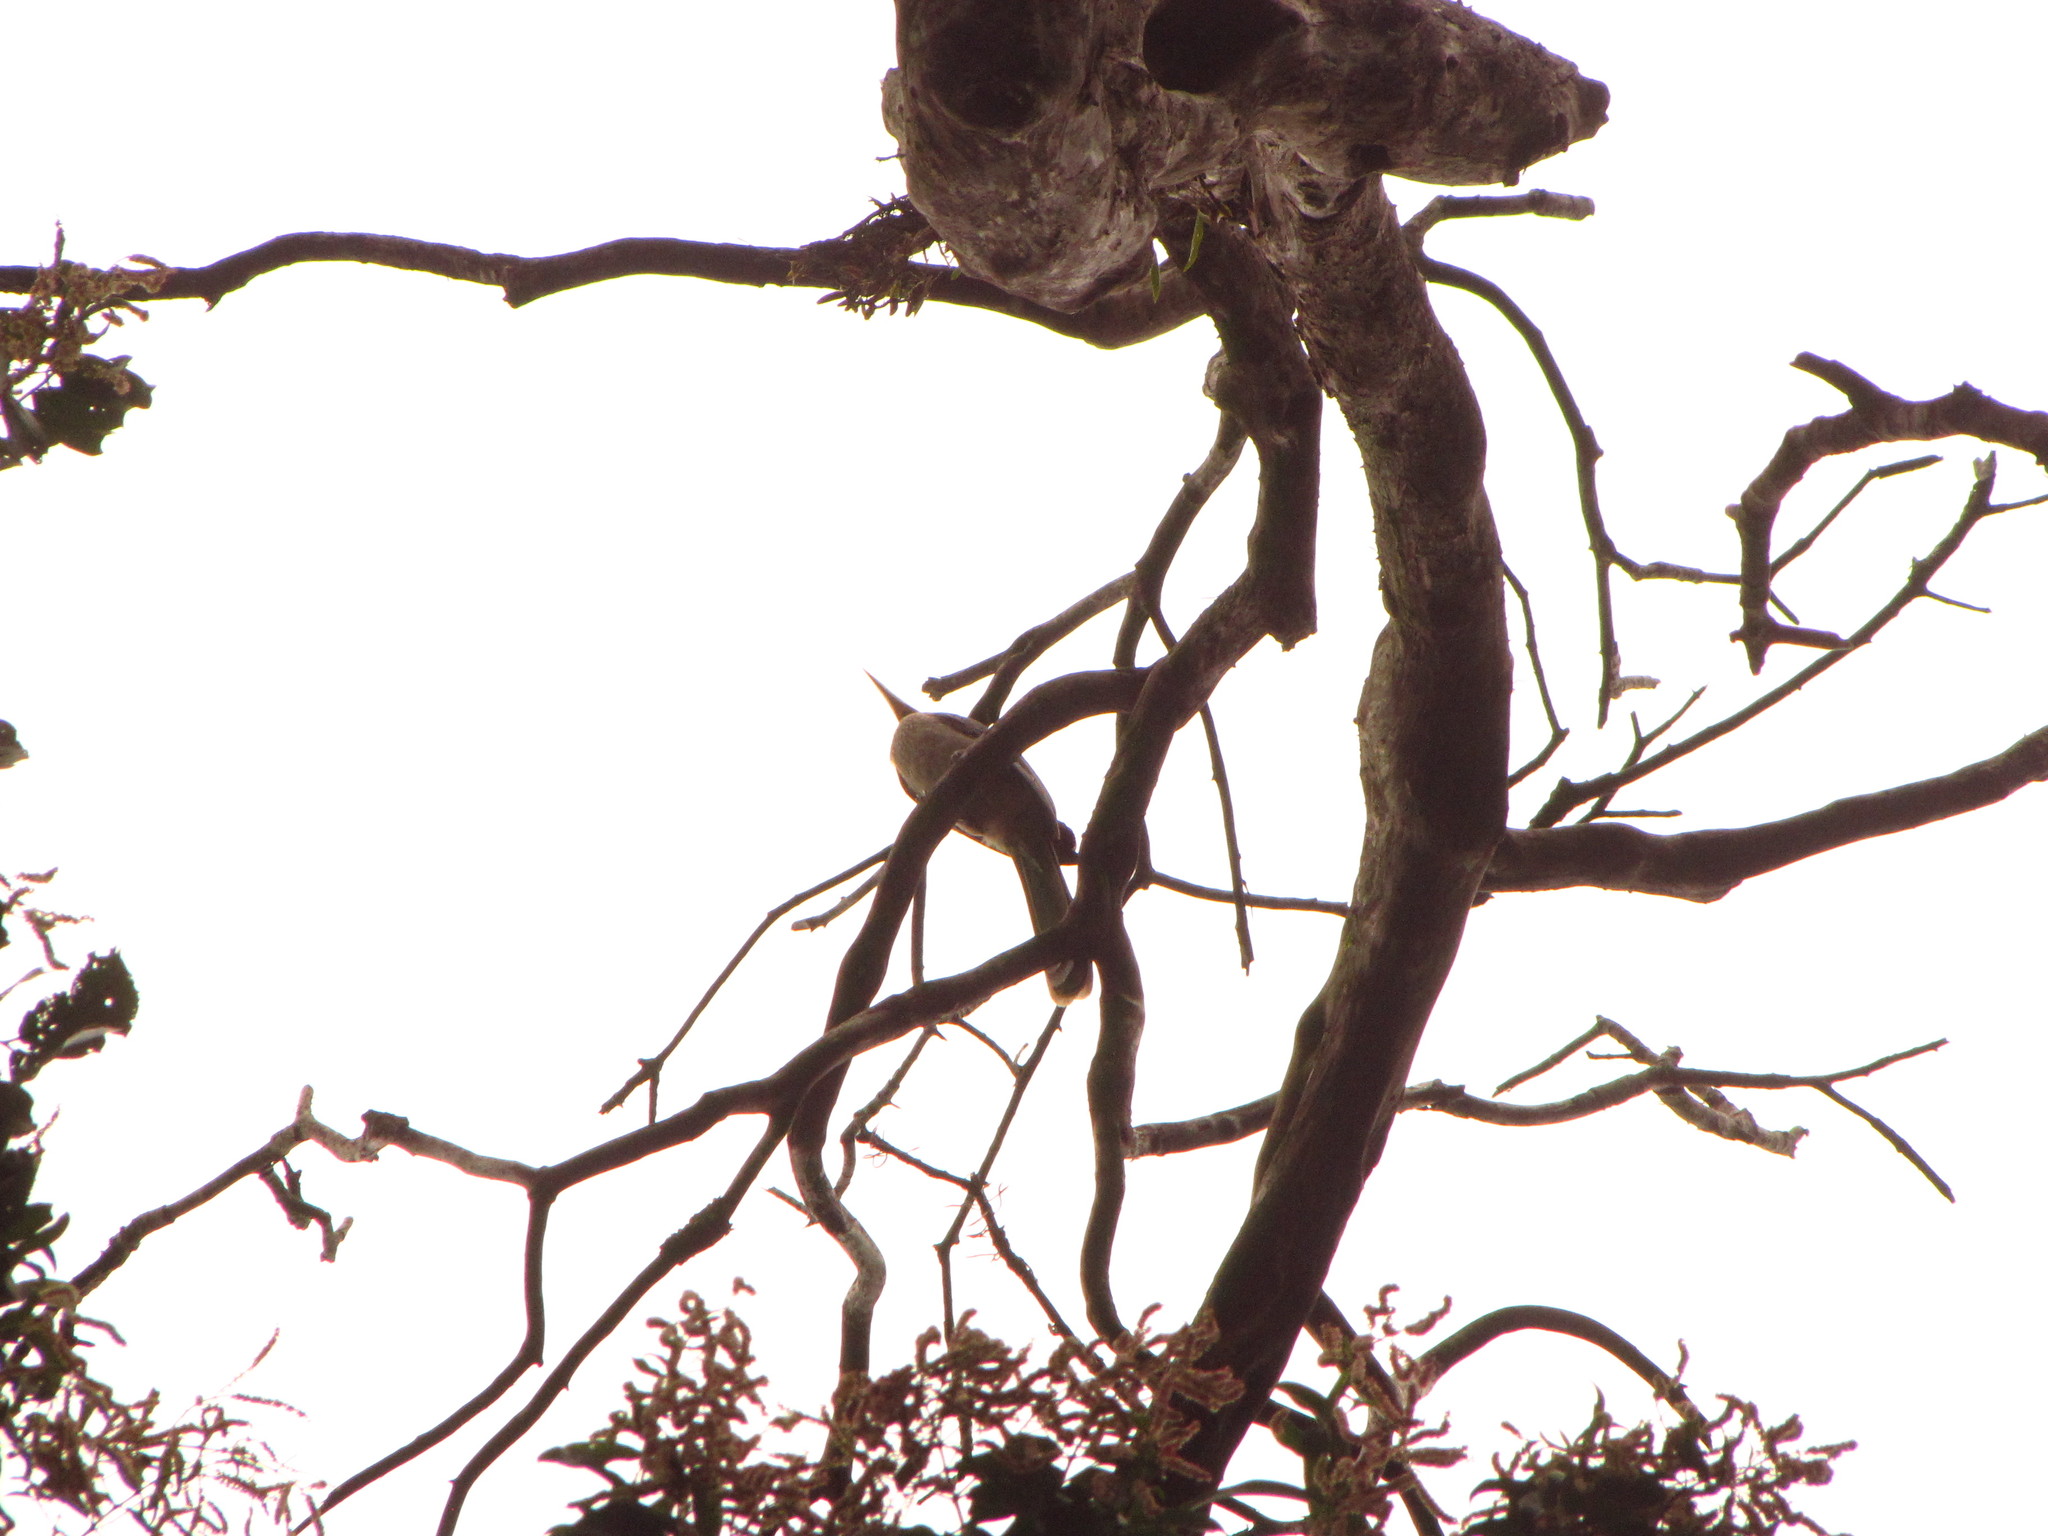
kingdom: Animalia
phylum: Chordata
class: Aves
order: Bucerotiformes
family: Bucerotidae
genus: Anorrhinus
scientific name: Anorrhinus austeni
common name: Austen's brown hornbill
